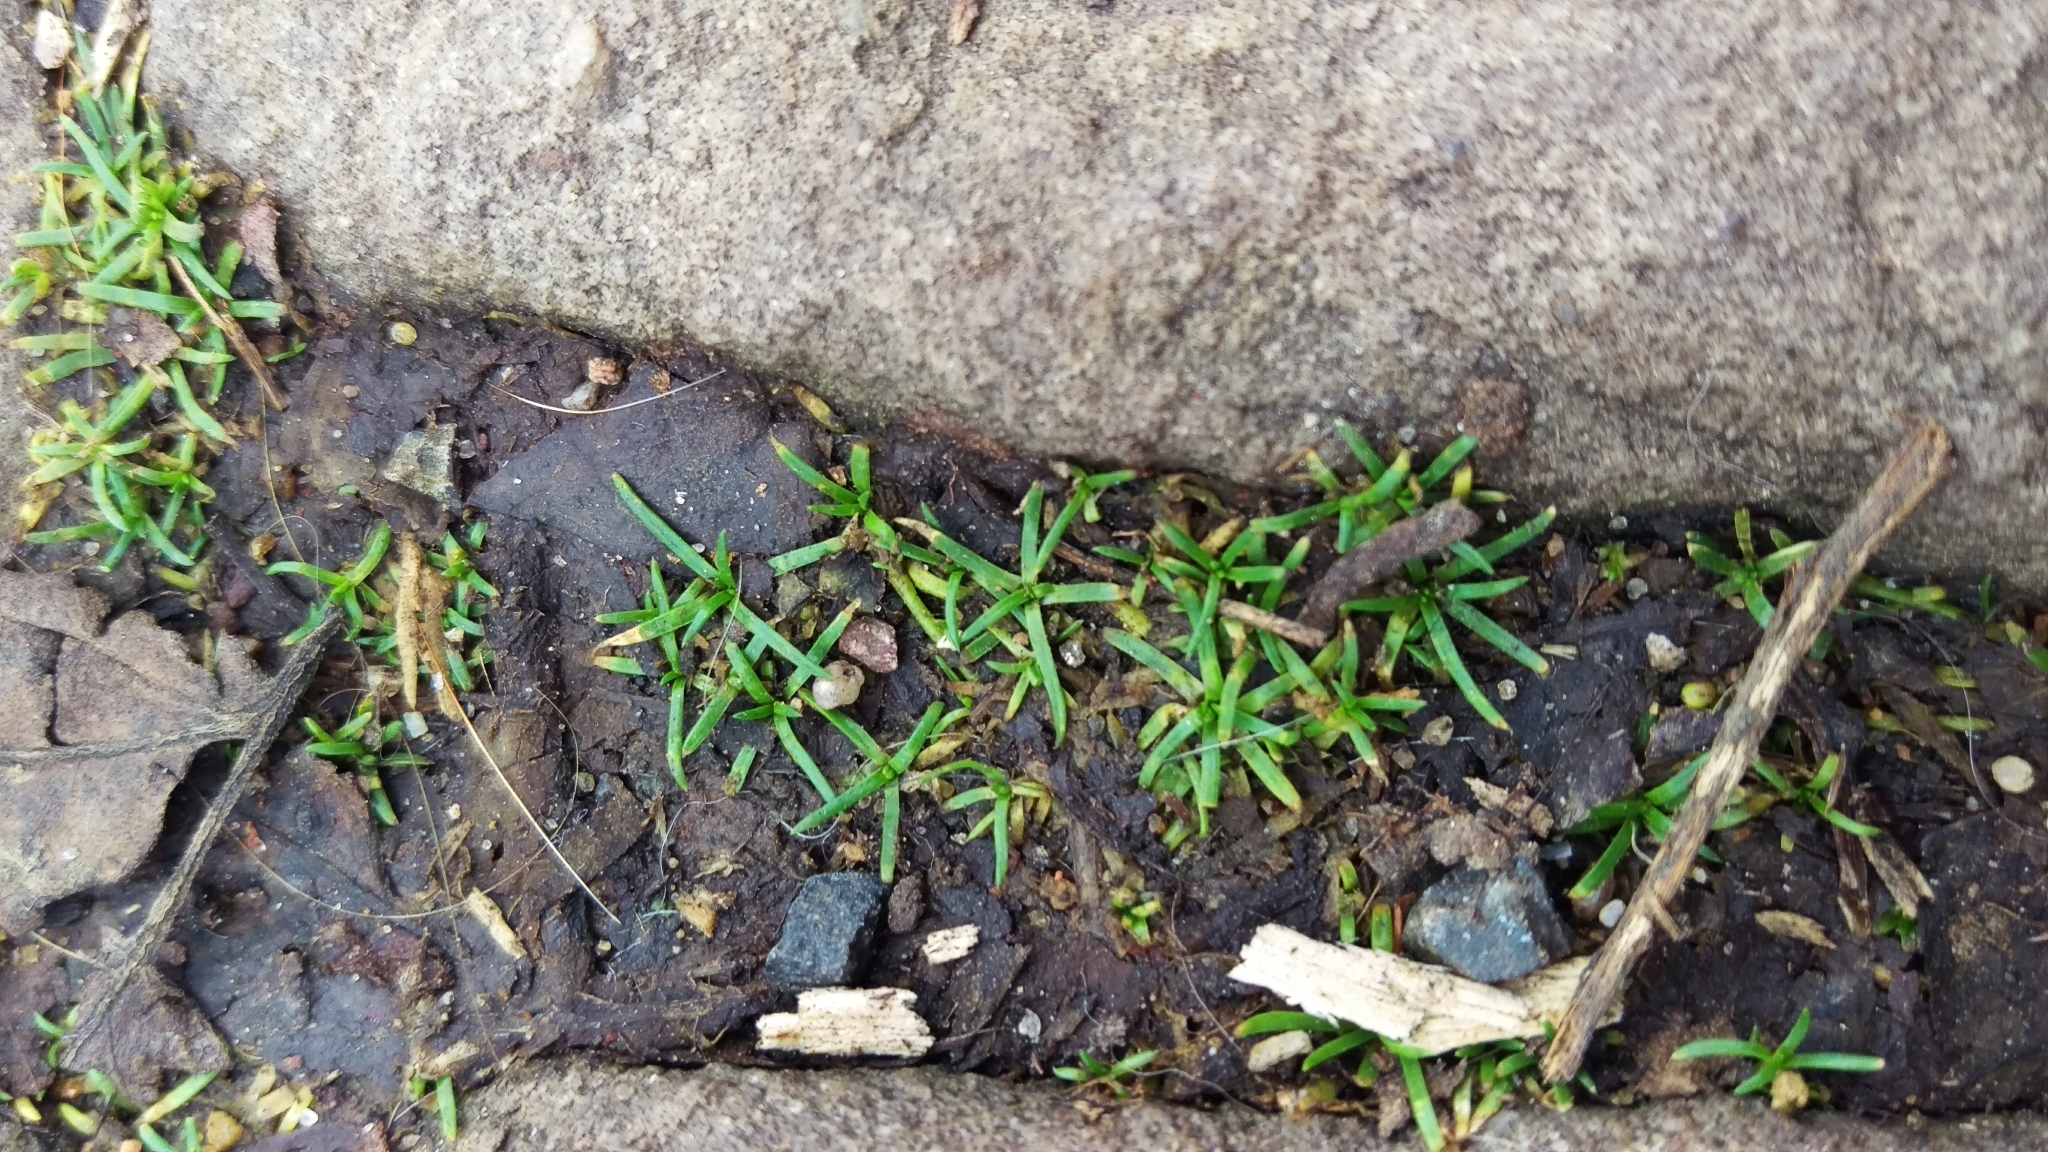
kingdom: Plantae
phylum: Tracheophyta
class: Magnoliopsida
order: Caryophyllales
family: Caryophyllaceae
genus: Sagina
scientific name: Sagina procumbens
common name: Procumbent pearlwort
